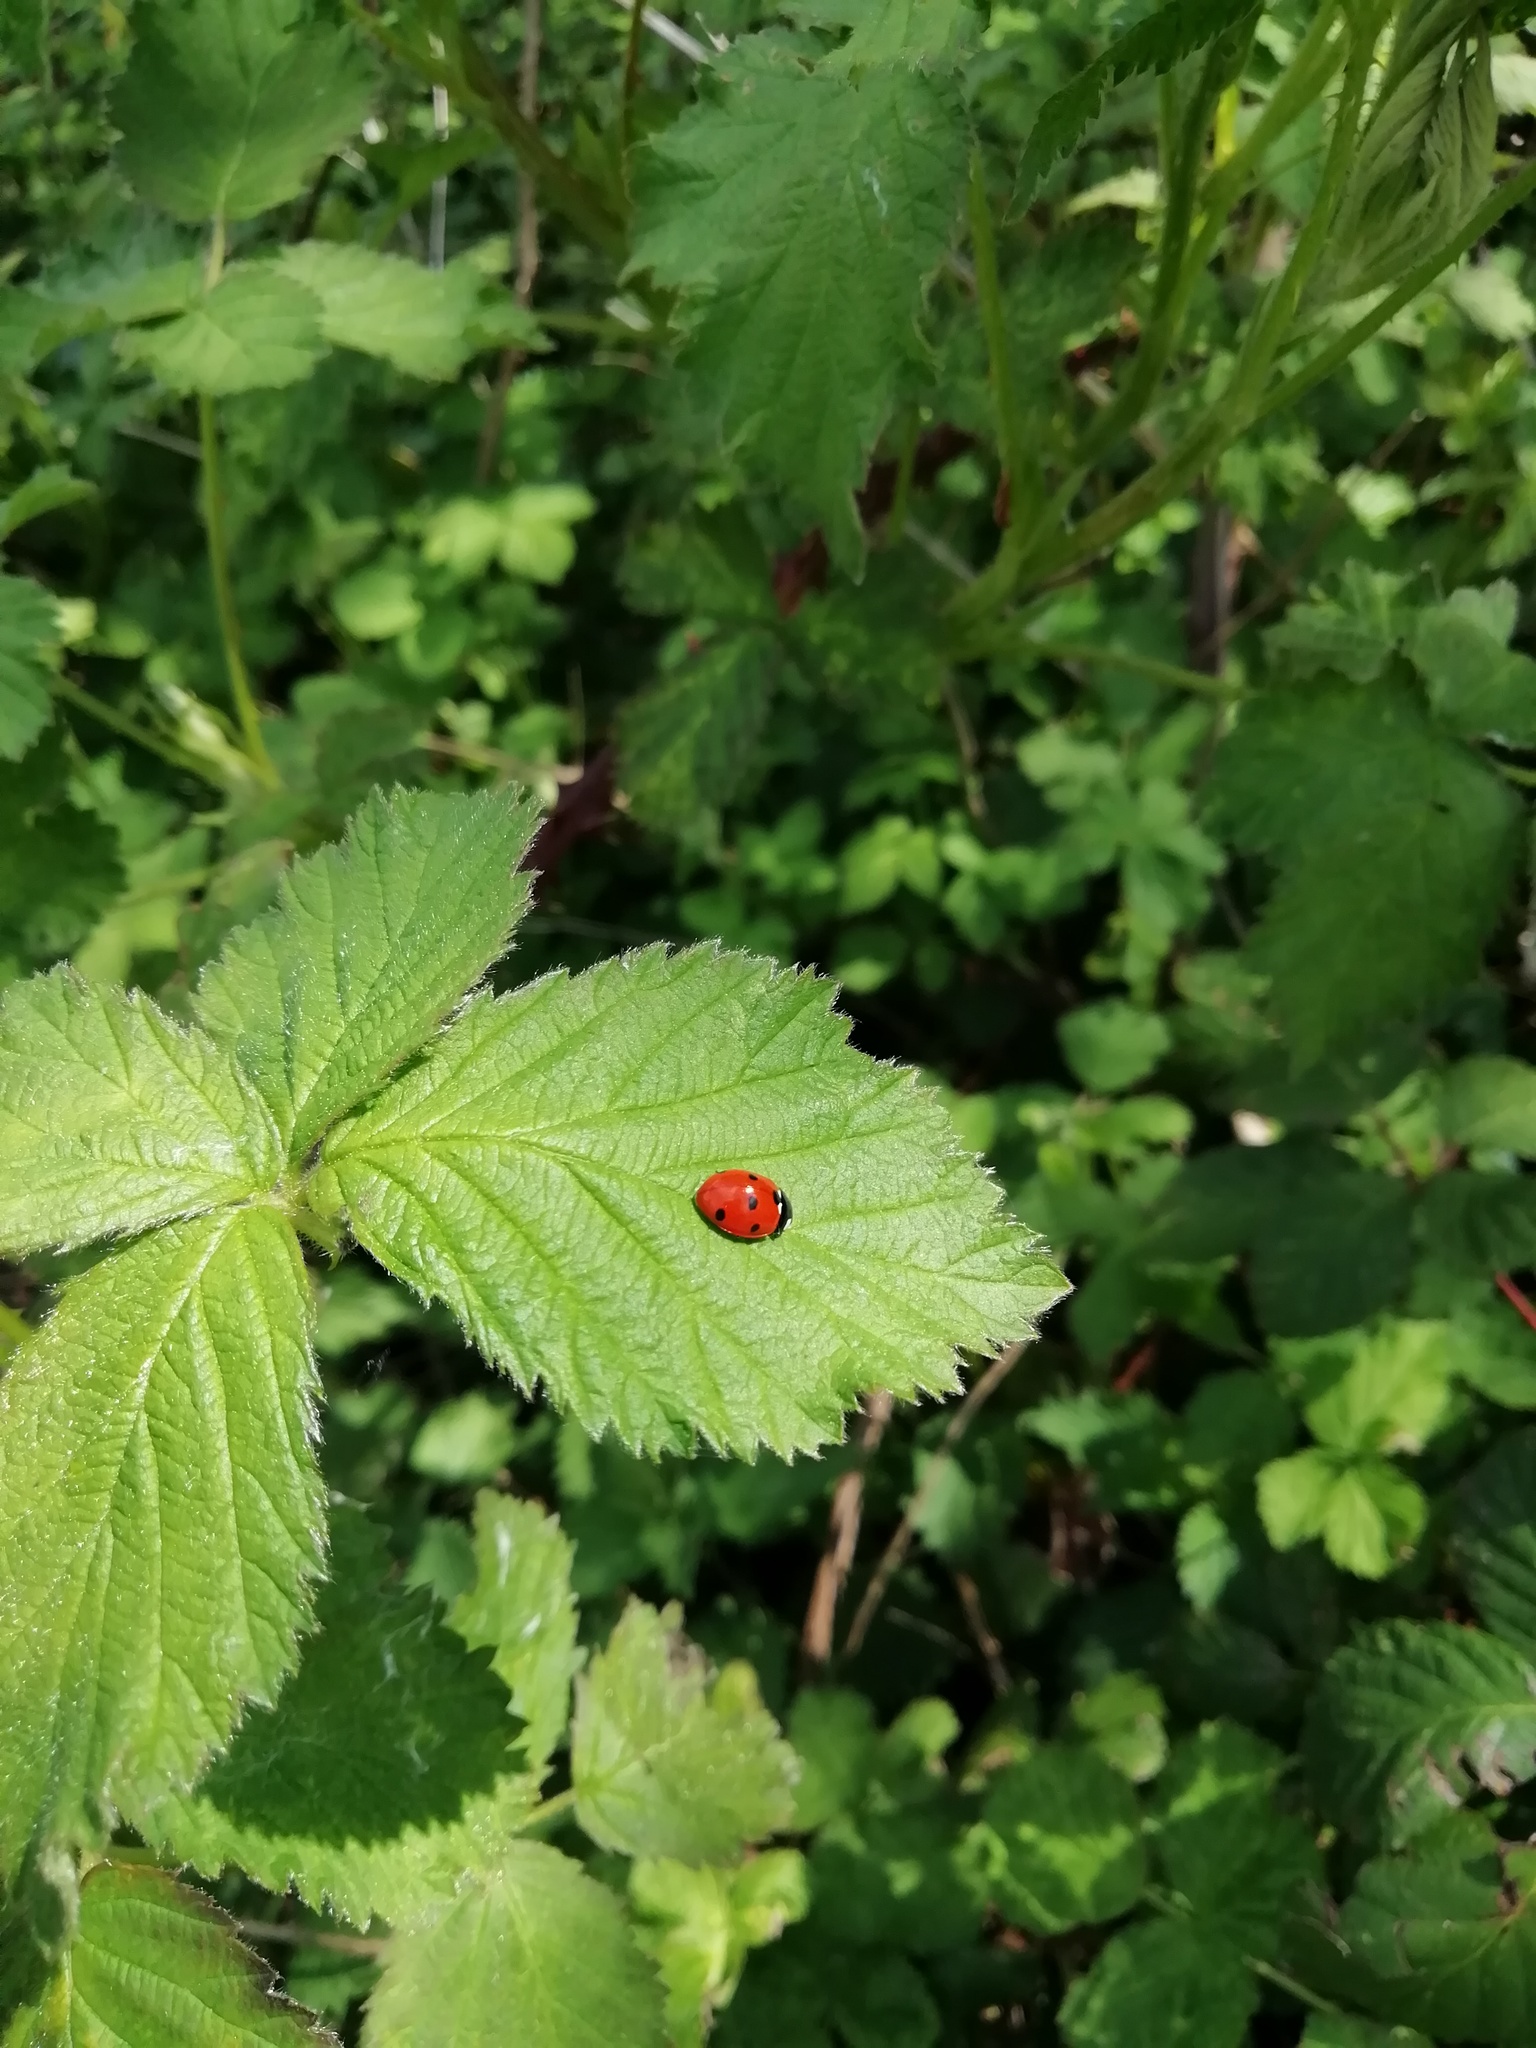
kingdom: Animalia
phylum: Arthropoda
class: Insecta
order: Coleoptera
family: Coccinellidae
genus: Coccinella
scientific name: Coccinella septempunctata
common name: Sevenspotted lady beetle
